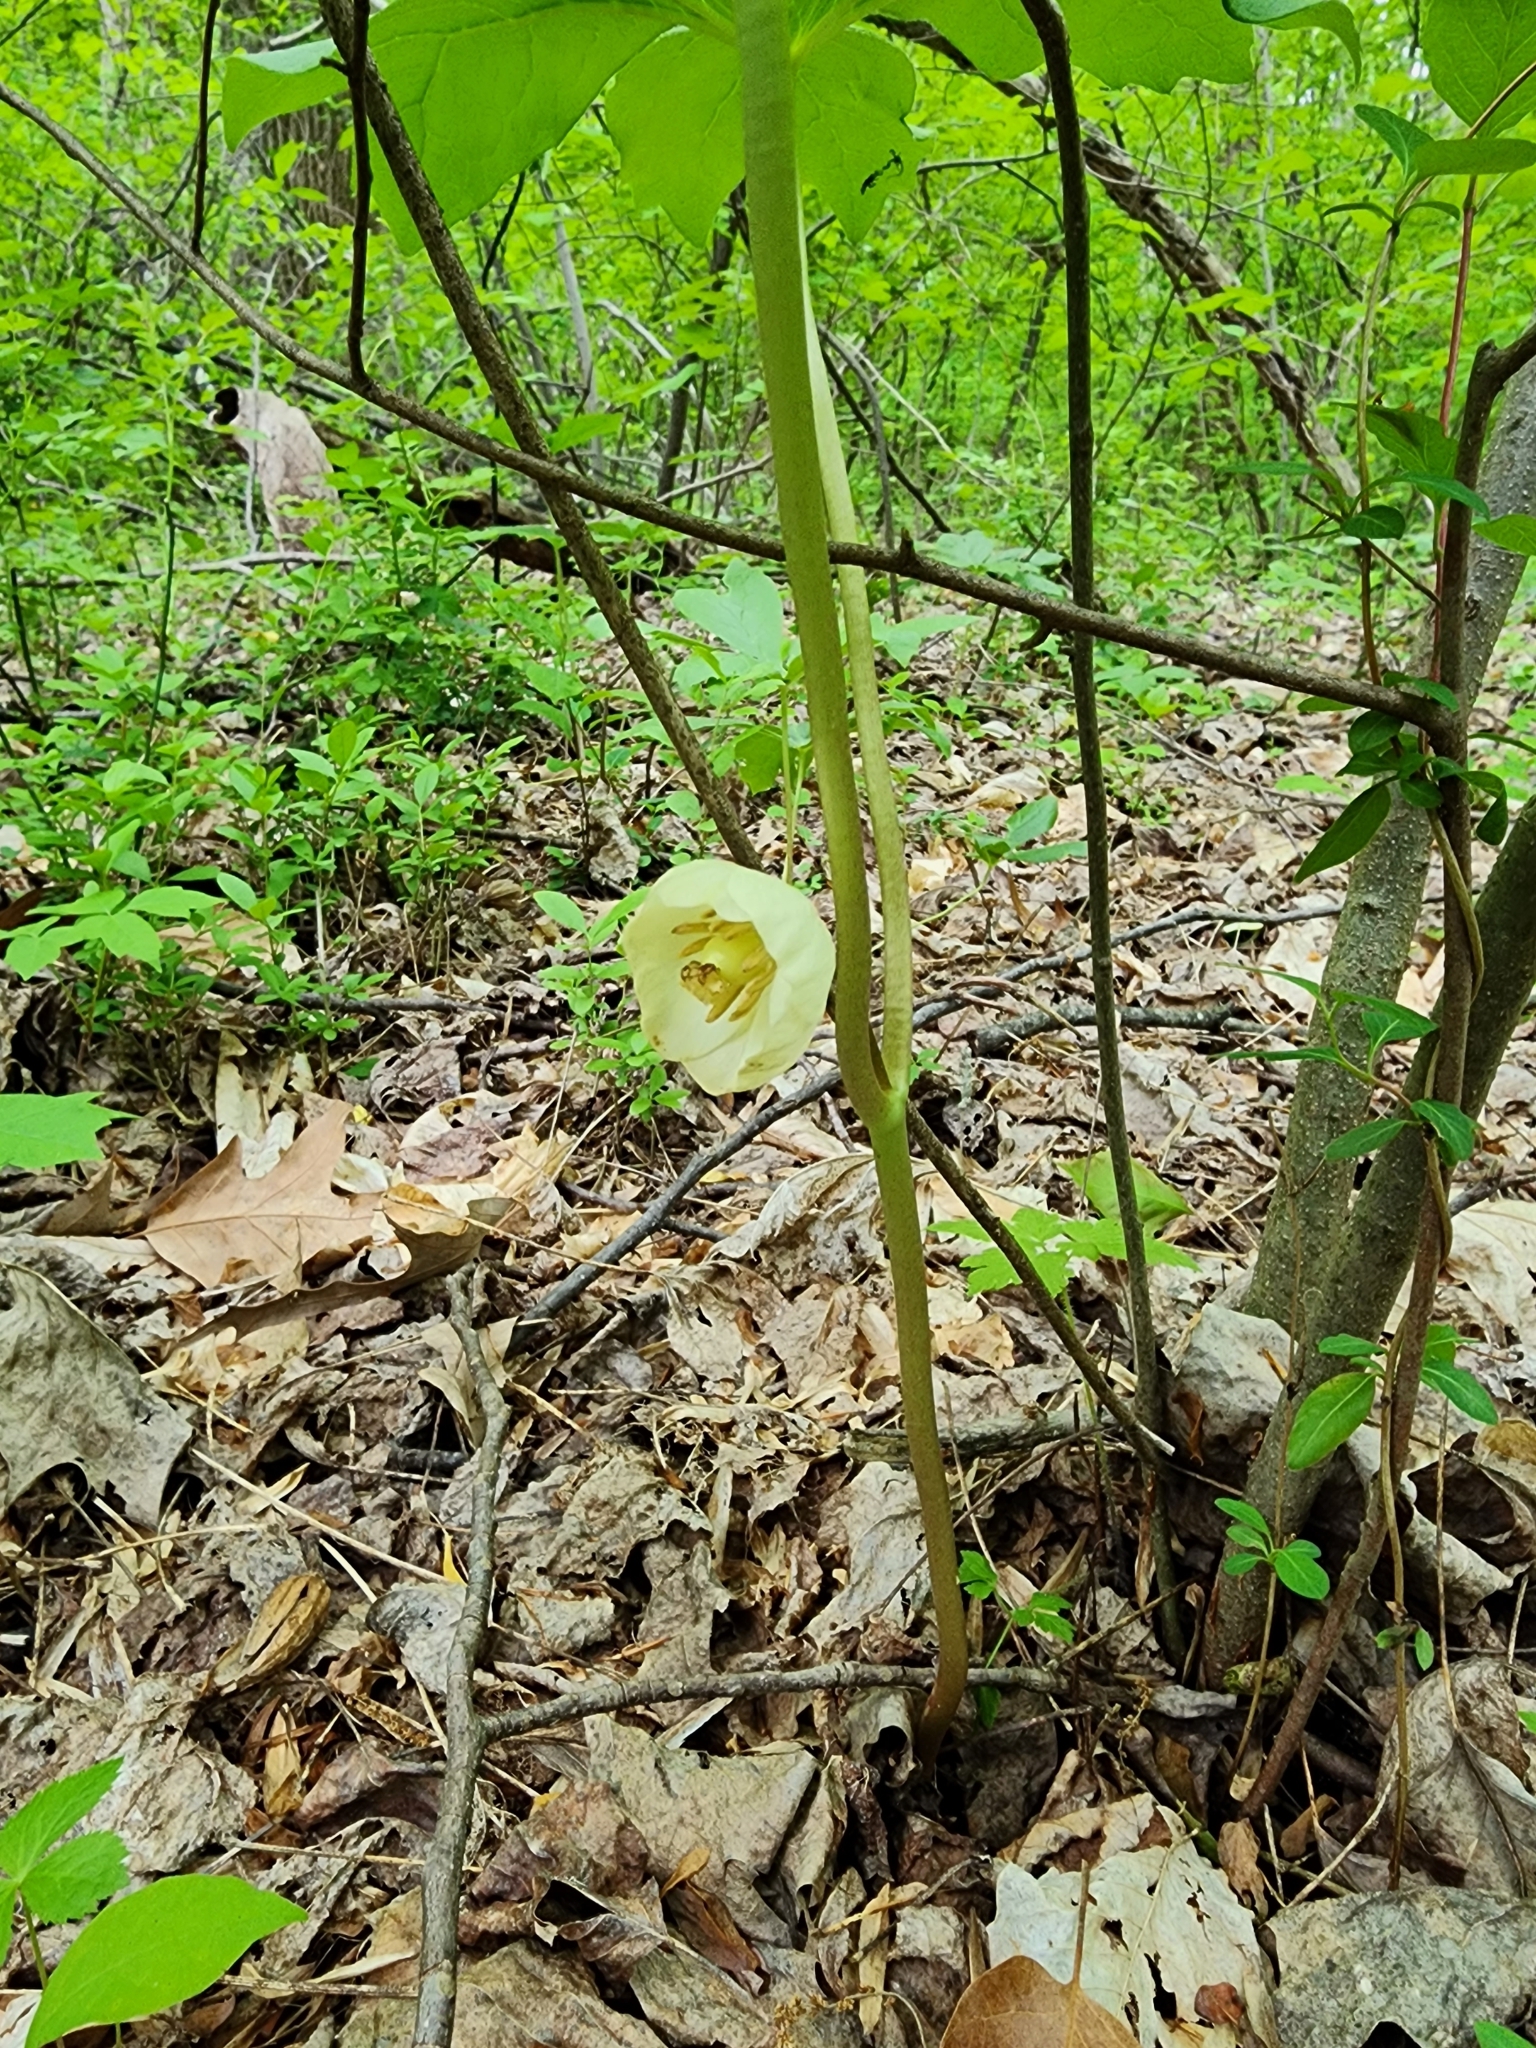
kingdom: Plantae
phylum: Tracheophyta
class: Magnoliopsida
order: Ranunculales
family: Berberidaceae
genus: Podophyllum
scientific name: Podophyllum peltatum
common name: Wild mandrake
